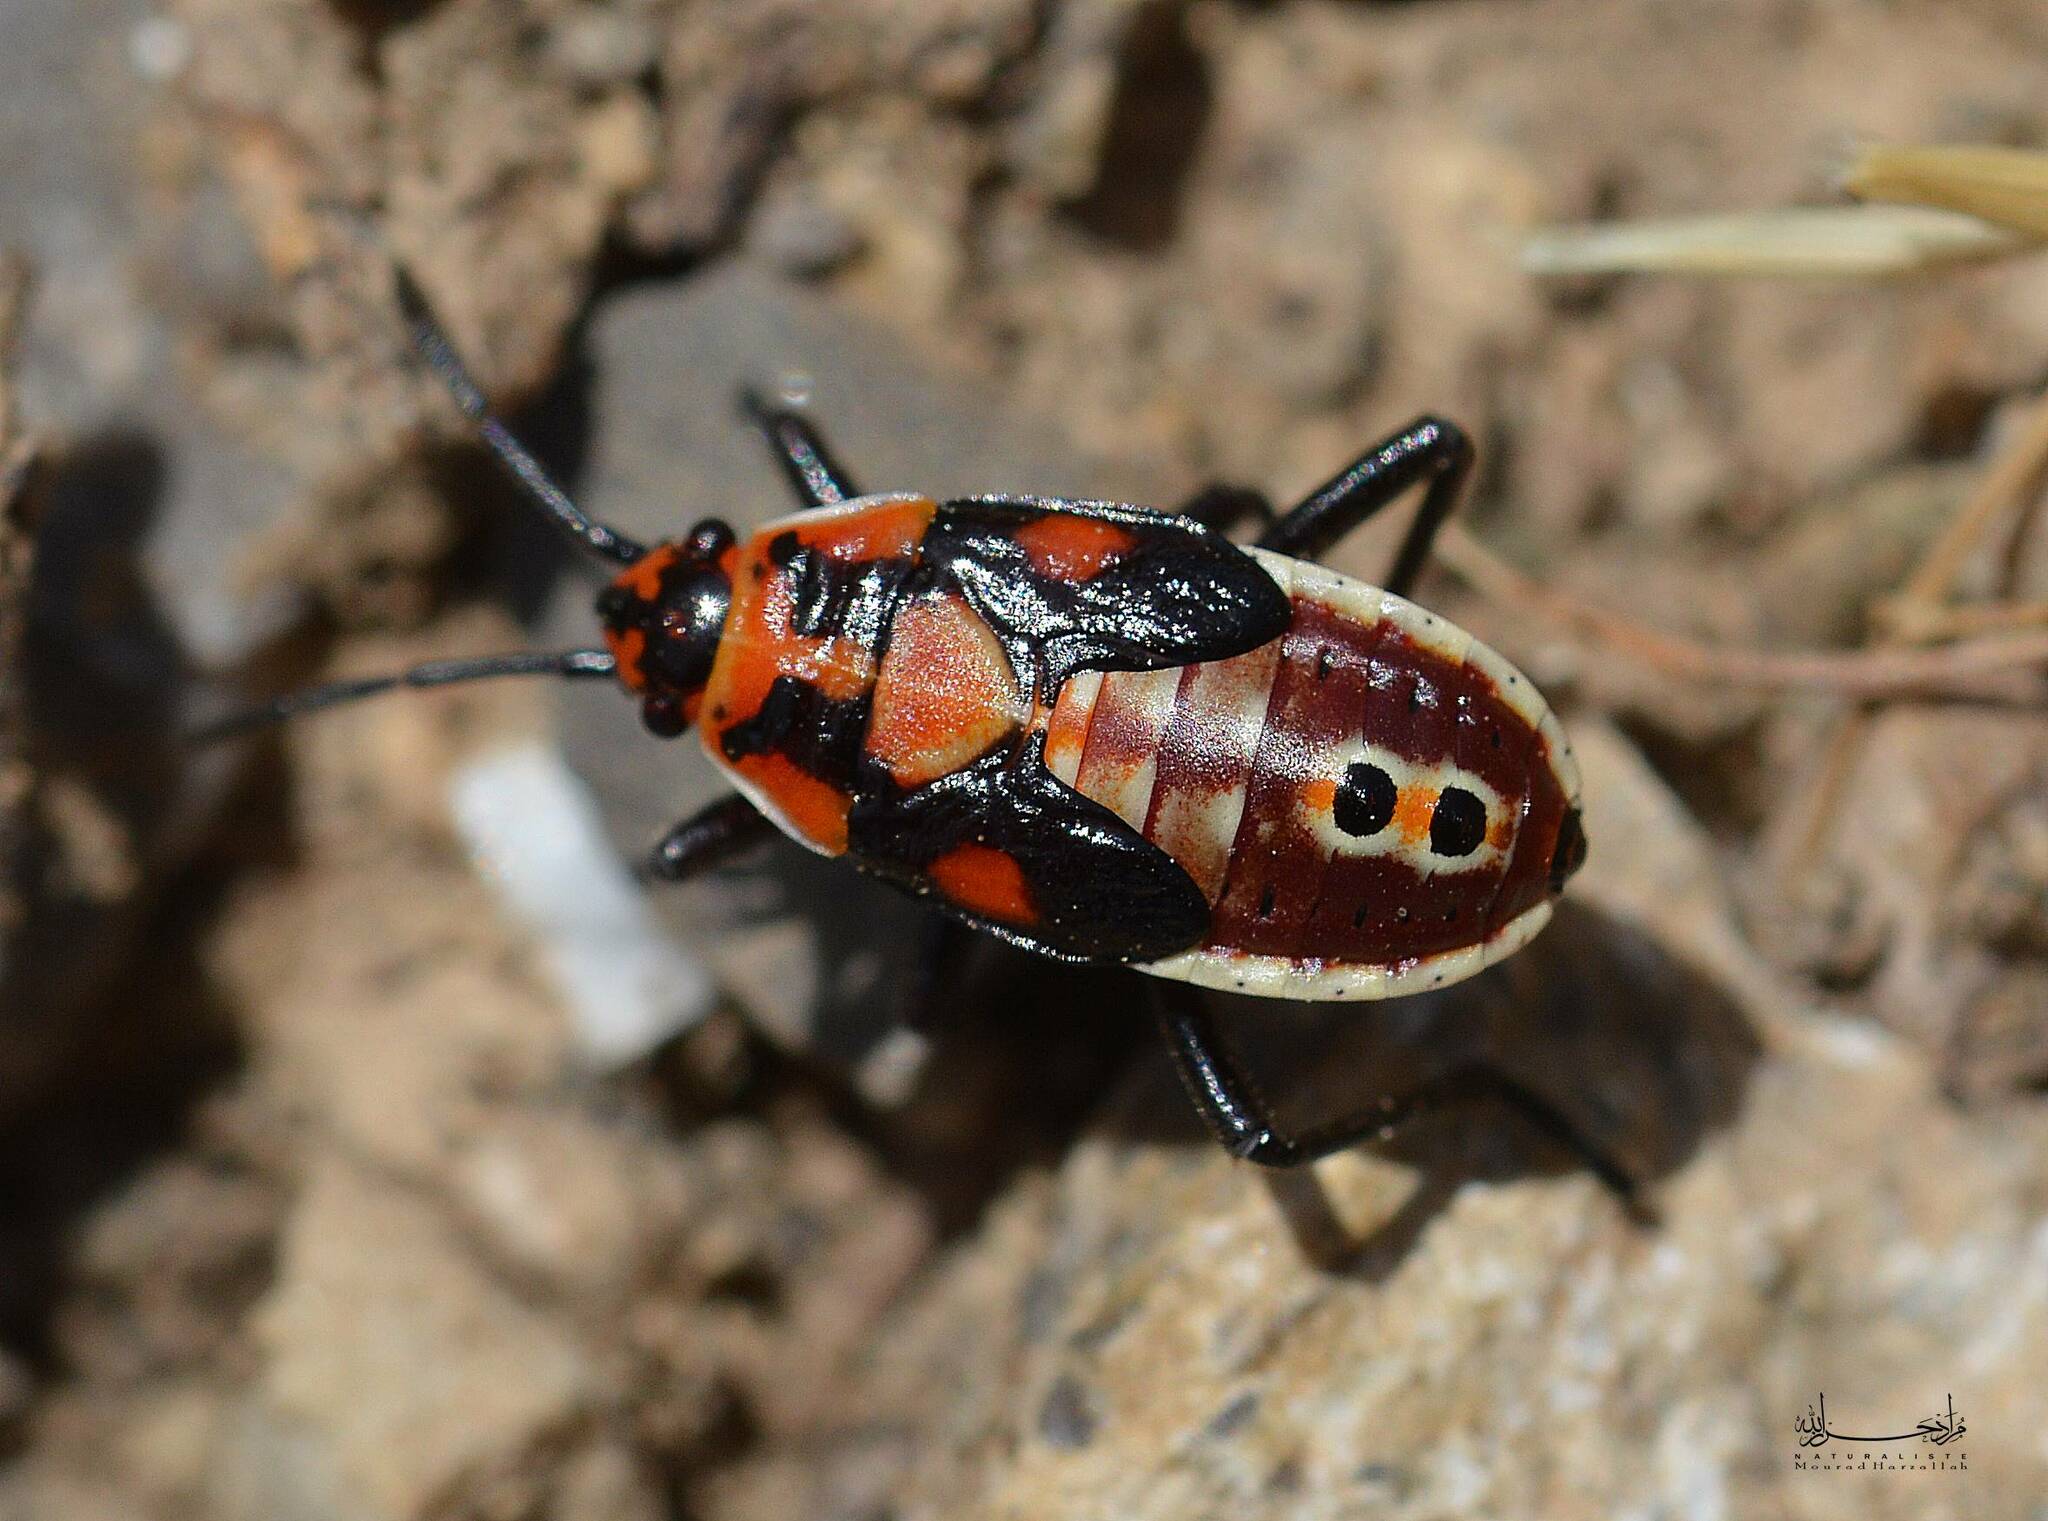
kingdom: Animalia
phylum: Arthropoda
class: Insecta
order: Hemiptera
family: Lygaeidae
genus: Spilostethus
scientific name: Spilostethus pandurus
